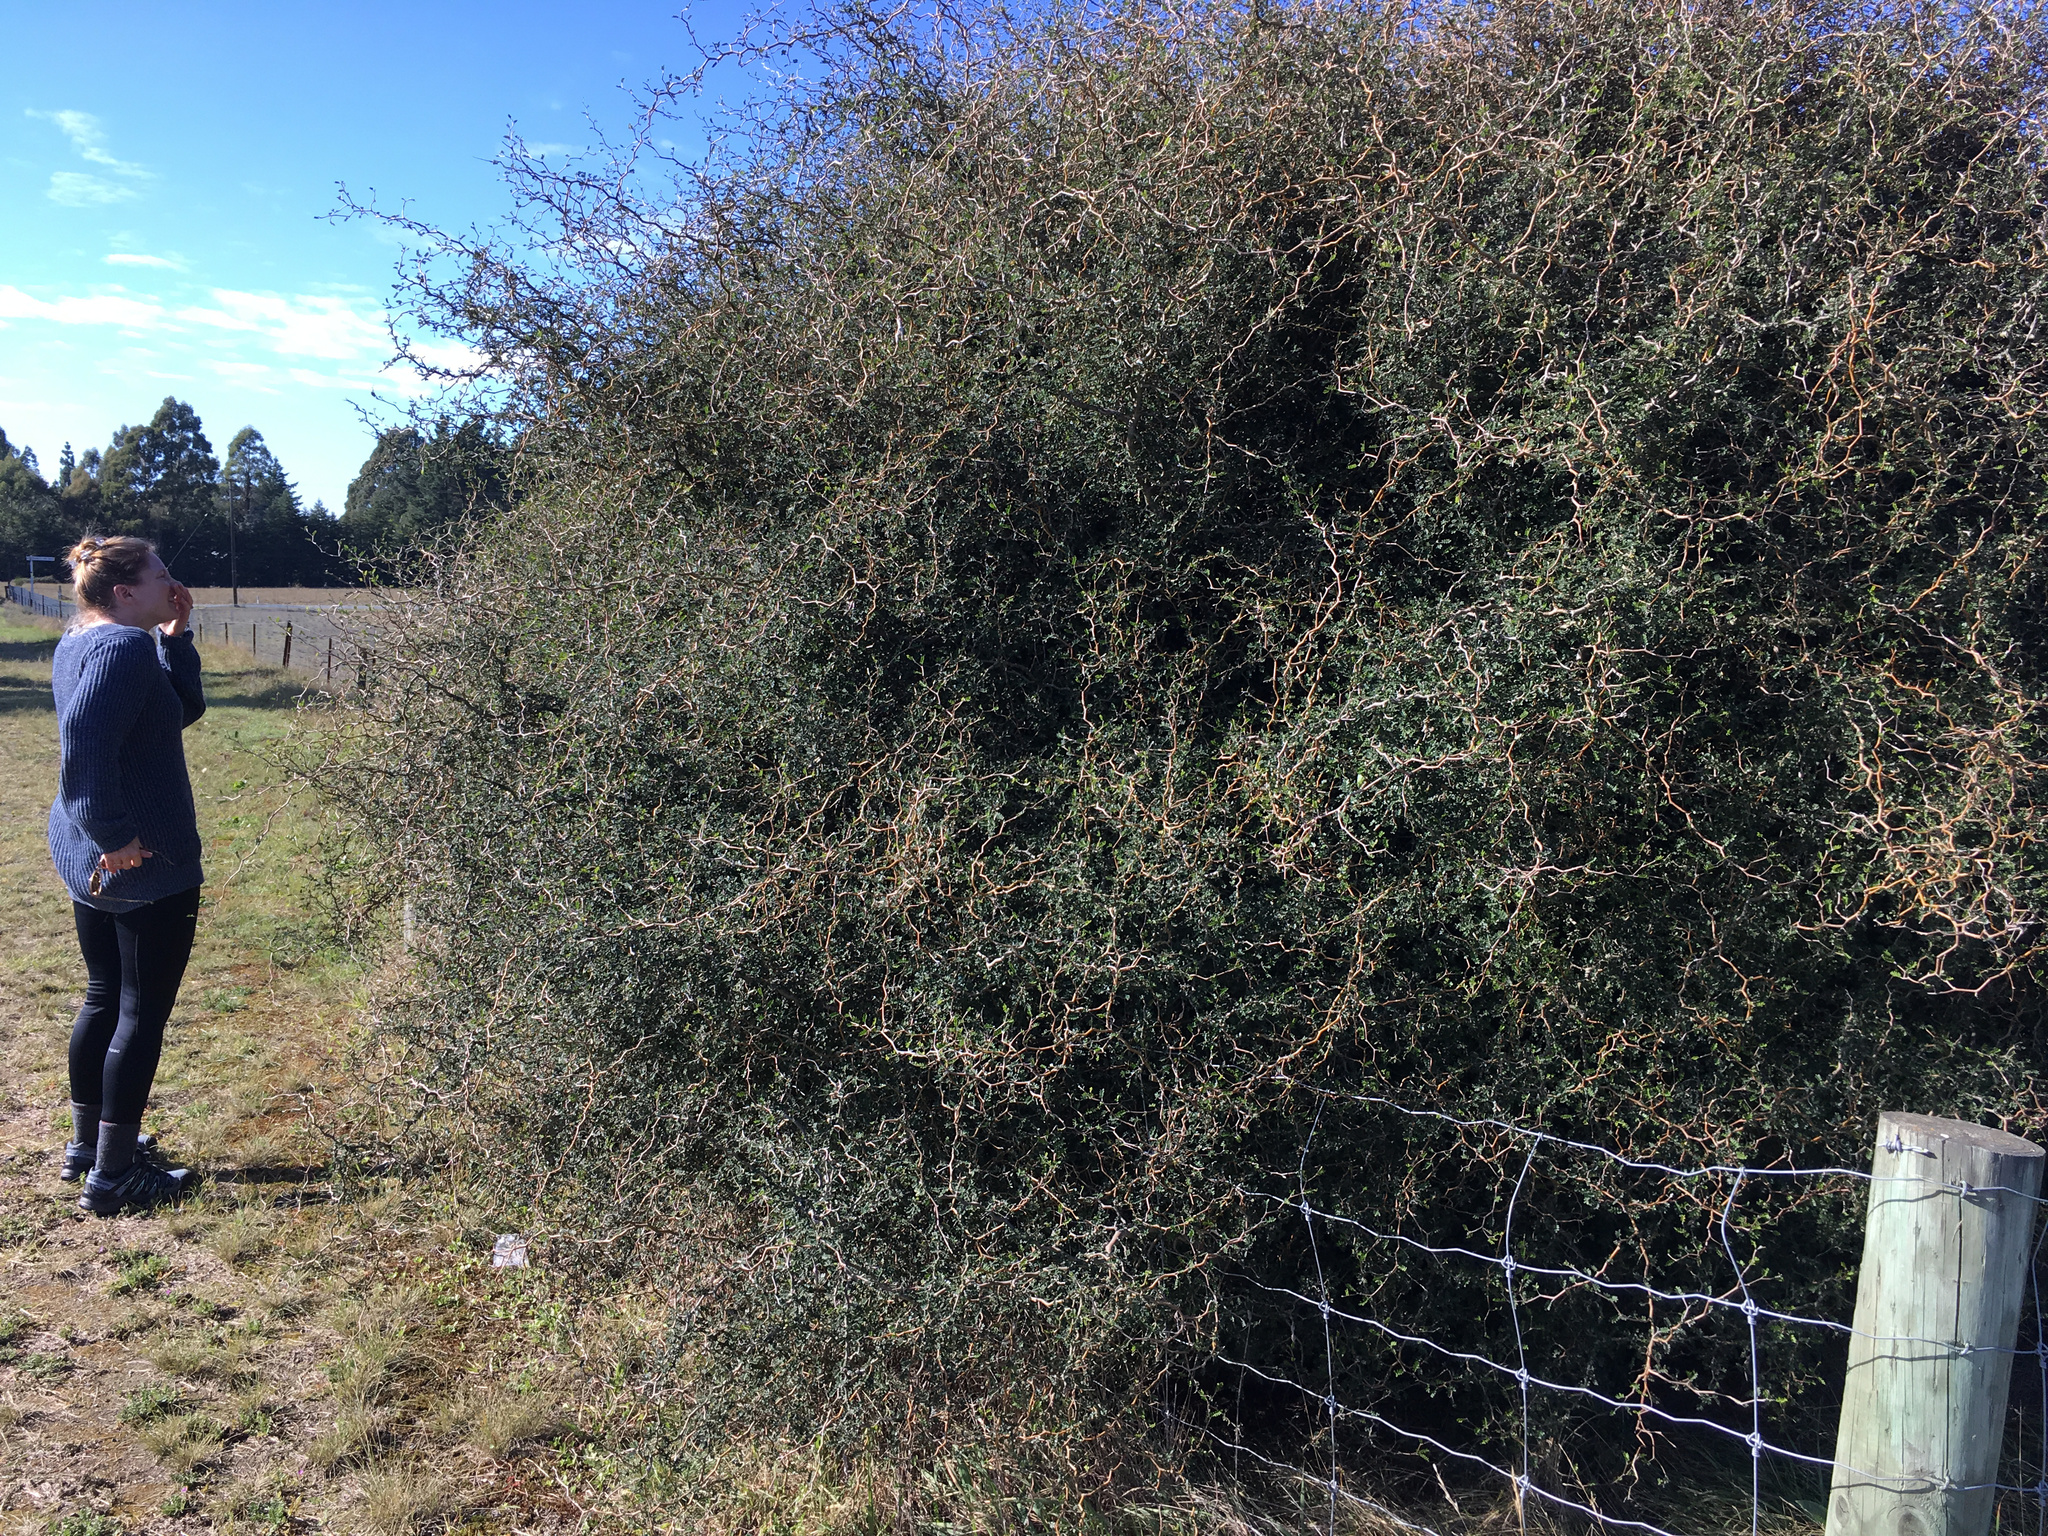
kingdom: Plantae
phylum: Tracheophyta
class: Magnoliopsida
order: Fabales
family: Fabaceae
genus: Sophora
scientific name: Sophora prostrata
